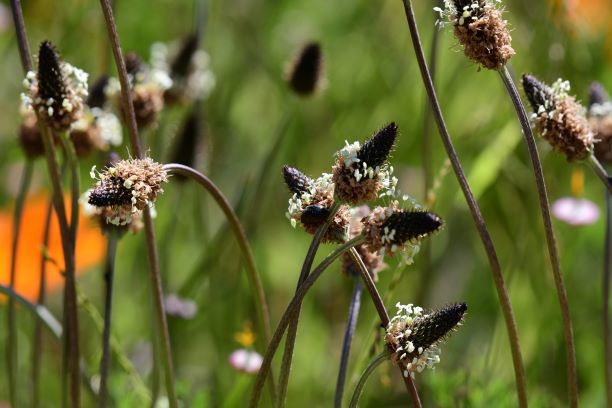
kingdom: Plantae
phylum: Tracheophyta
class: Magnoliopsida
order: Lamiales
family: Plantaginaceae
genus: Plantago
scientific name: Plantago lanceolata
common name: Ribwort plantain
